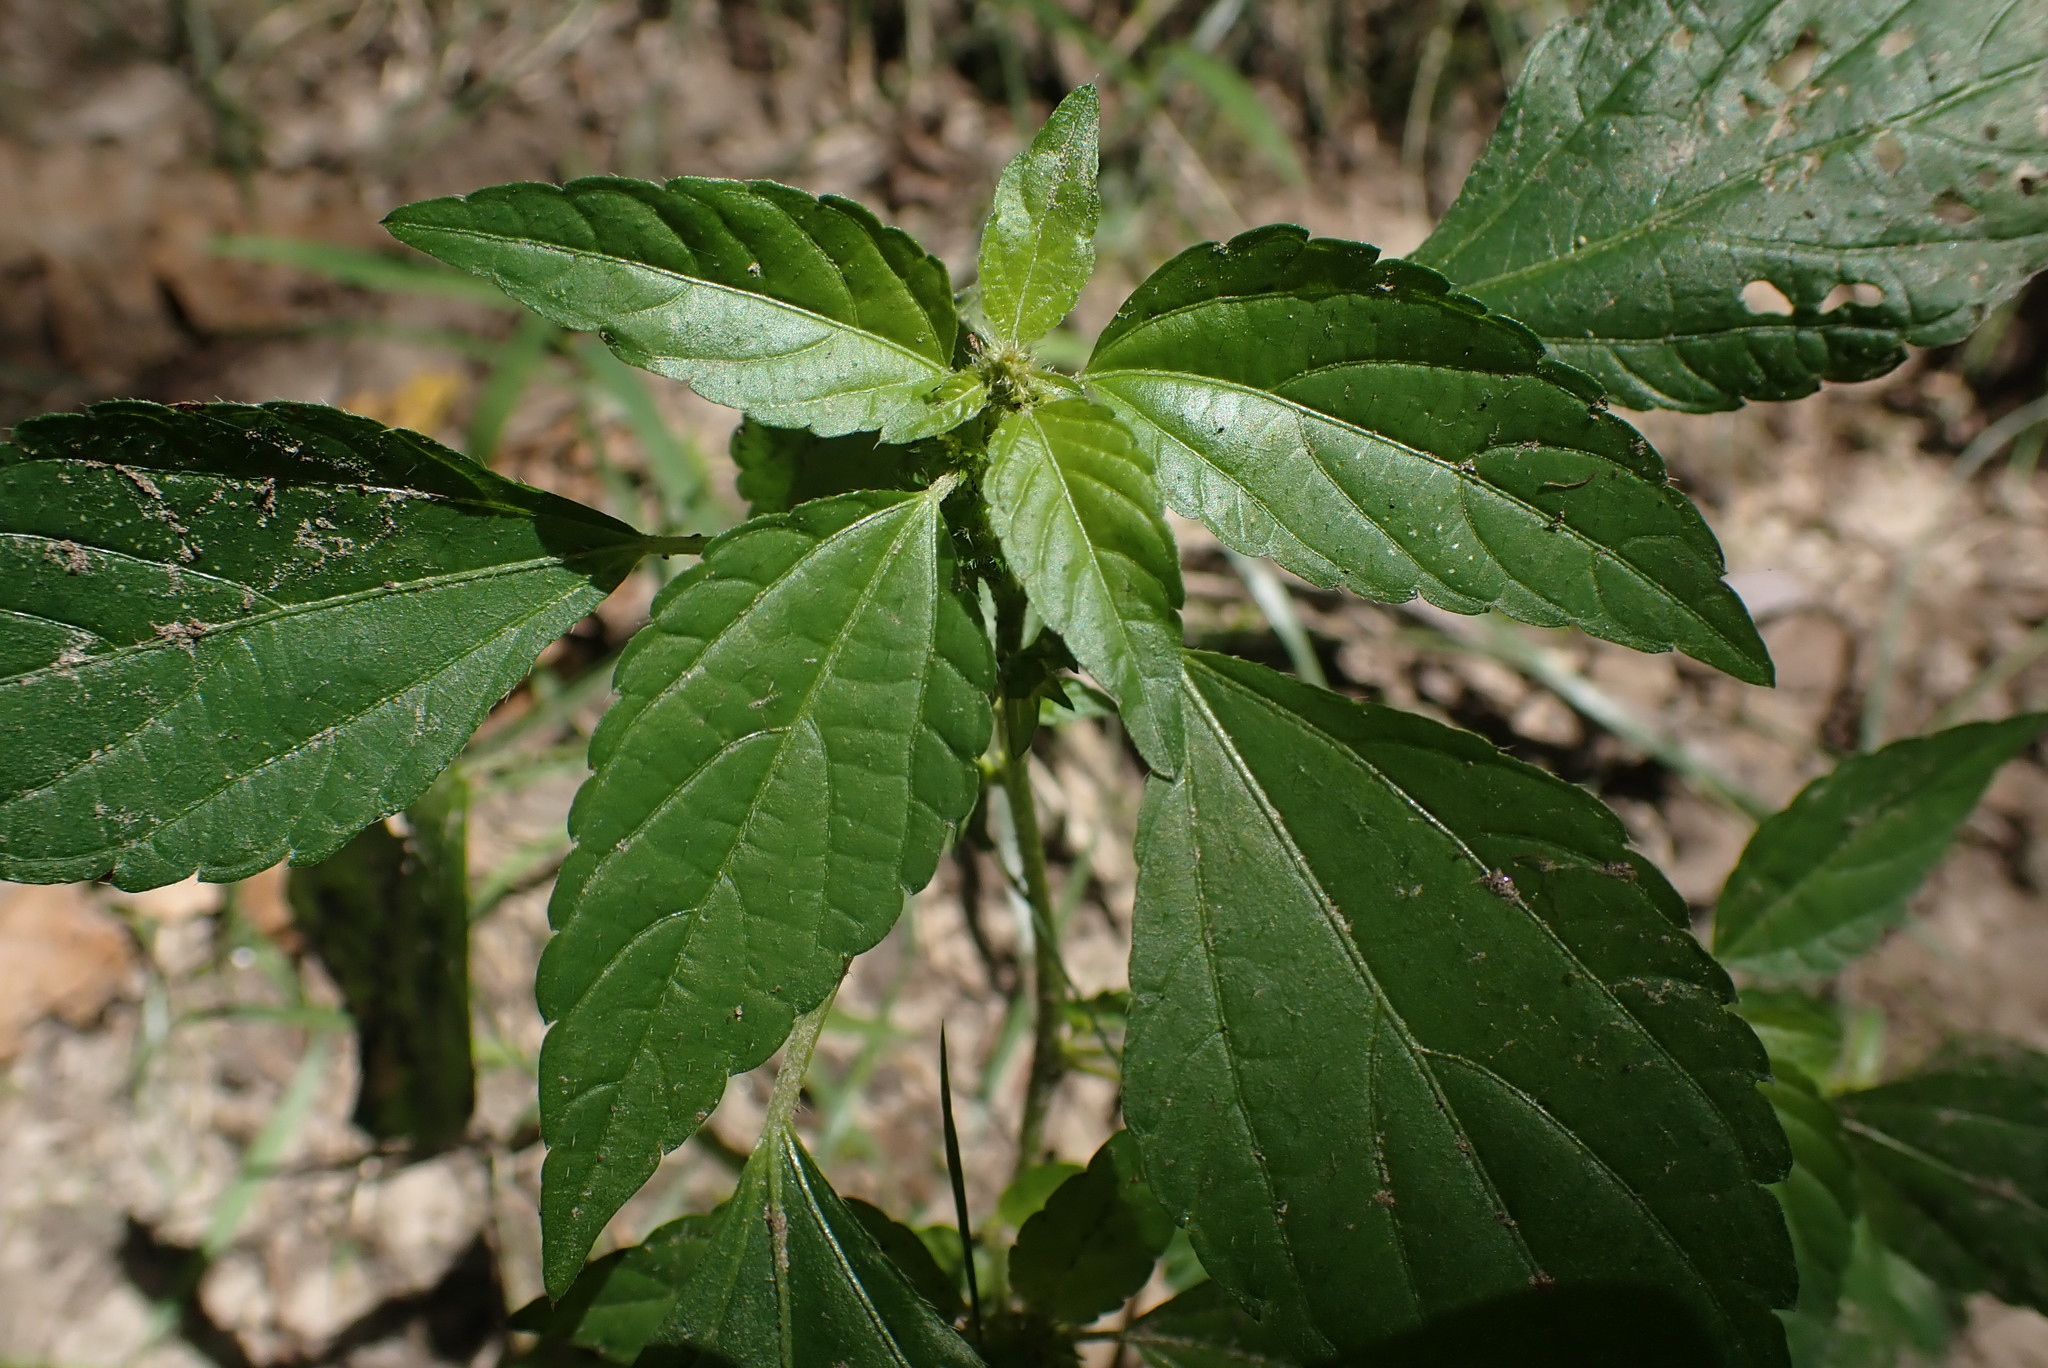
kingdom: Plantae
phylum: Tracheophyta
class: Magnoliopsida
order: Malpighiales
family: Euphorbiaceae
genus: Acalypha
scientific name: Acalypha rhomboidea
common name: Rhombic copperleaf
